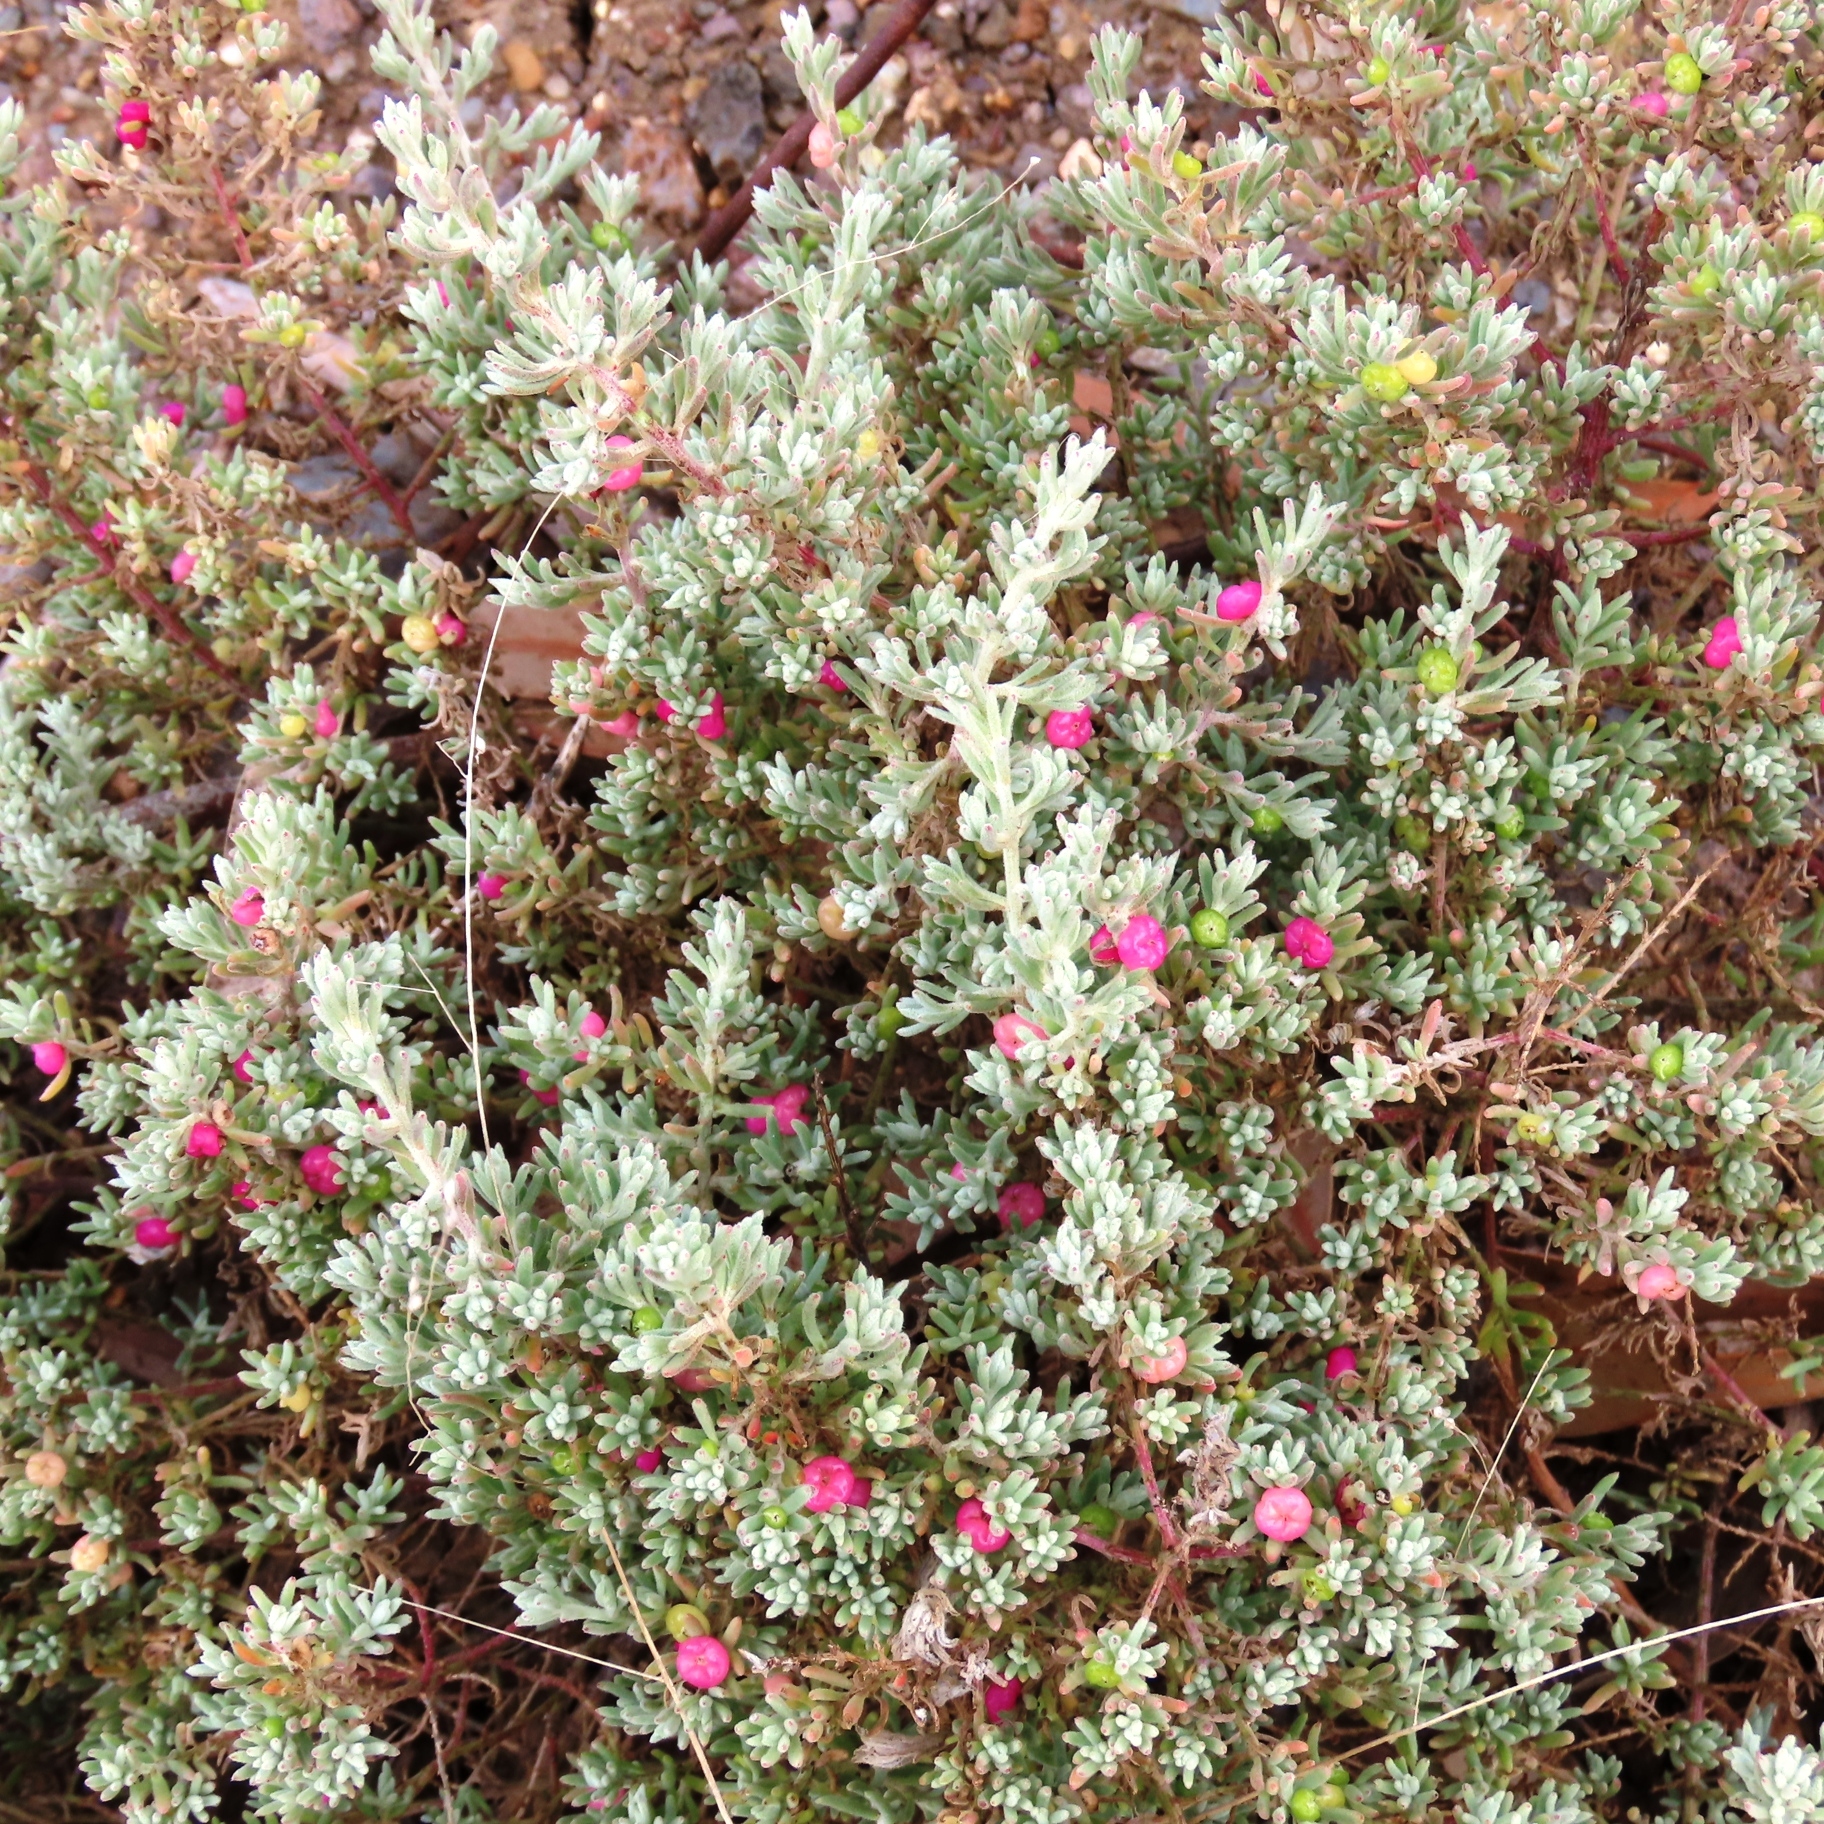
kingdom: Plantae
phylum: Tracheophyta
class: Magnoliopsida
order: Caryophyllales
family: Amaranthaceae
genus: Enchylaena
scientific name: Enchylaena tomentosa
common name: Ruby saltbush
